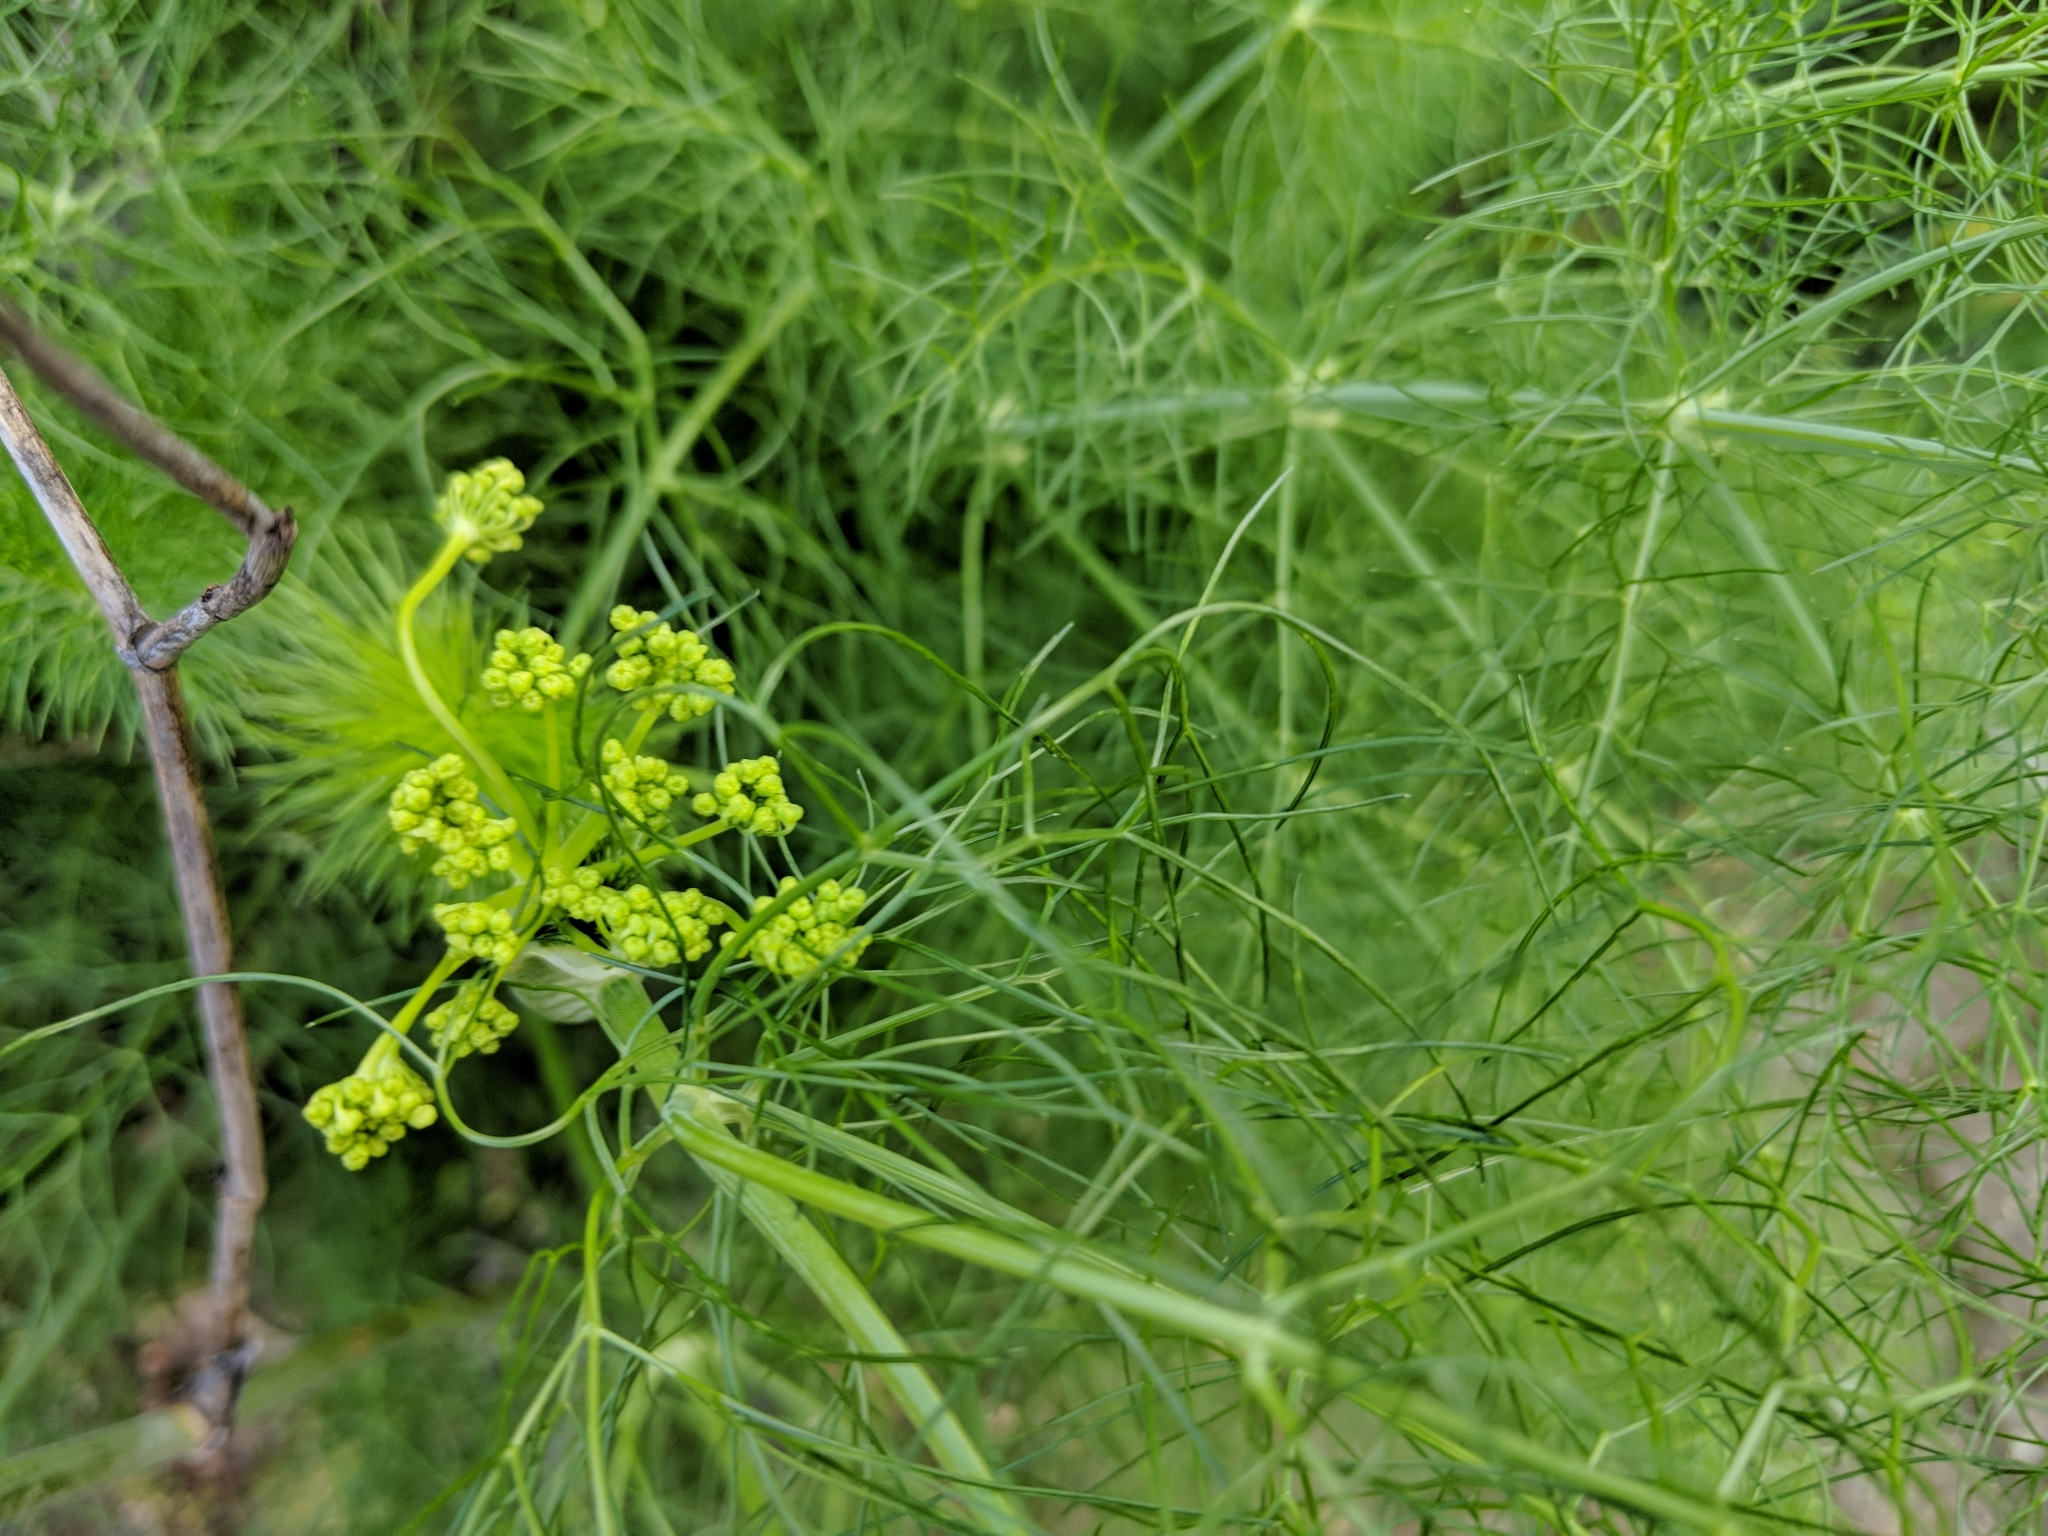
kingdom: Plantae
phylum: Tracheophyta
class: Magnoliopsida
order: Apiales
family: Apiaceae
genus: Foeniculum
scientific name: Foeniculum vulgare
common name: Fennel
